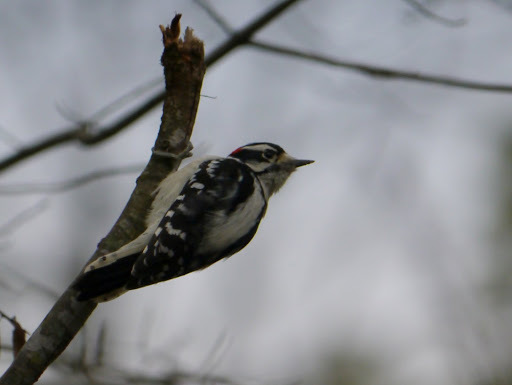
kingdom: Animalia
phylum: Chordata
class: Aves
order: Piciformes
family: Picidae
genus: Dryobates
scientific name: Dryobates pubescens
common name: Downy woodpecker
